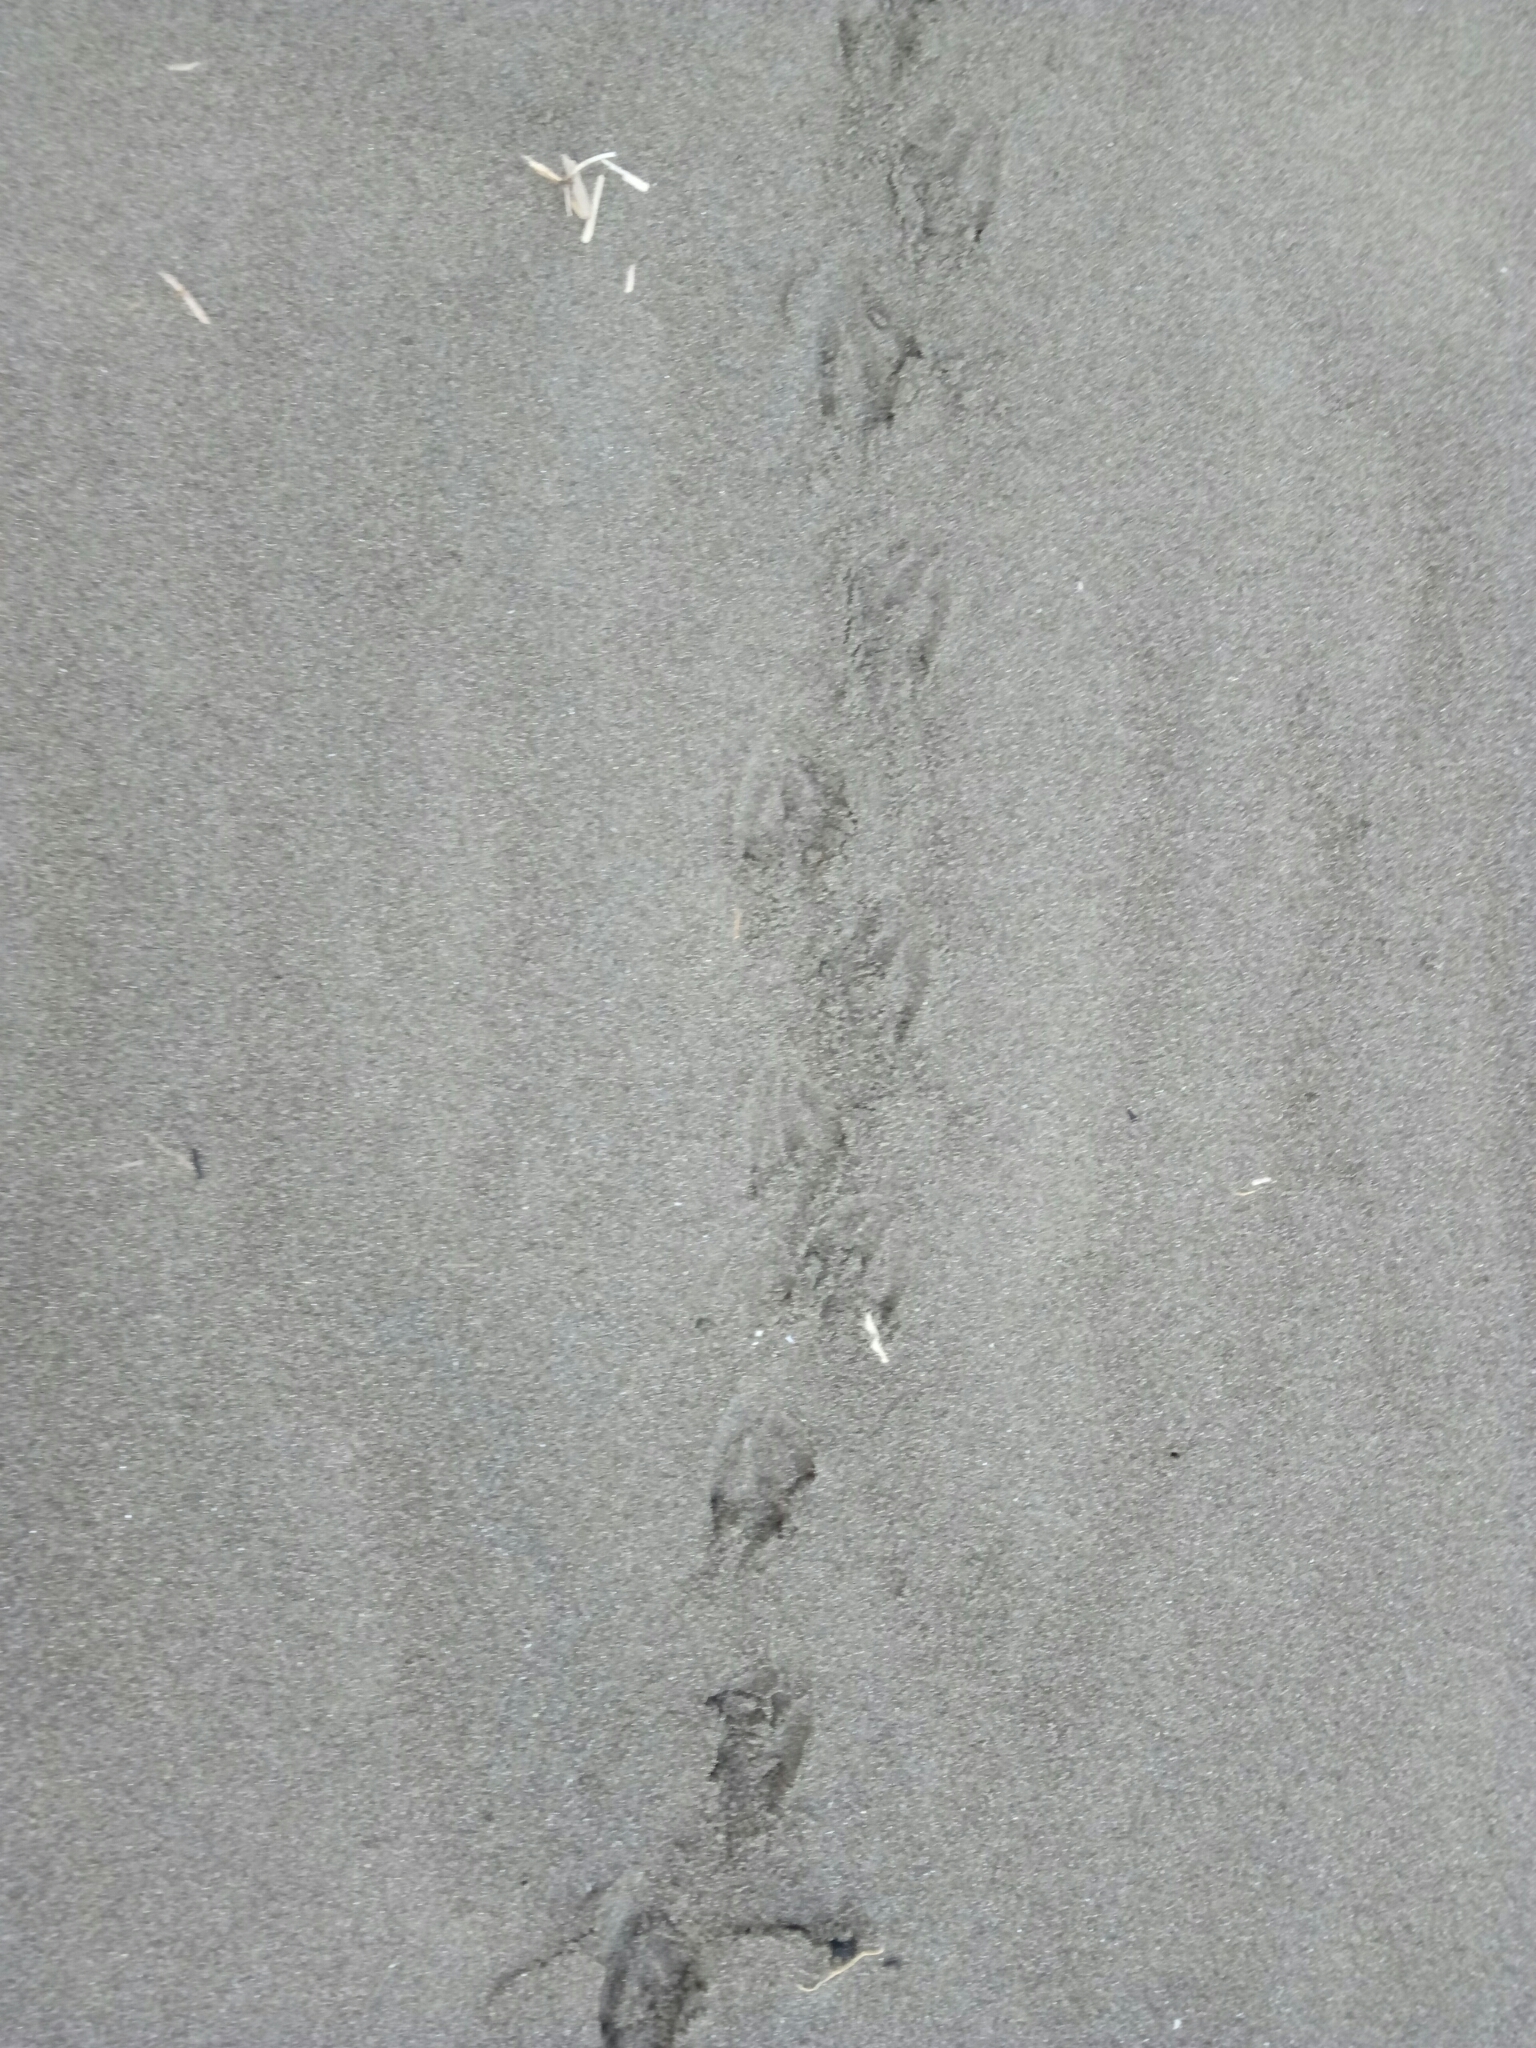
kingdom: Animalia
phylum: Chordata
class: Aves
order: Sphenisciformes
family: Spheniscidae
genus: Eudyptula
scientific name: Eudyptula minor
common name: Little penguin
